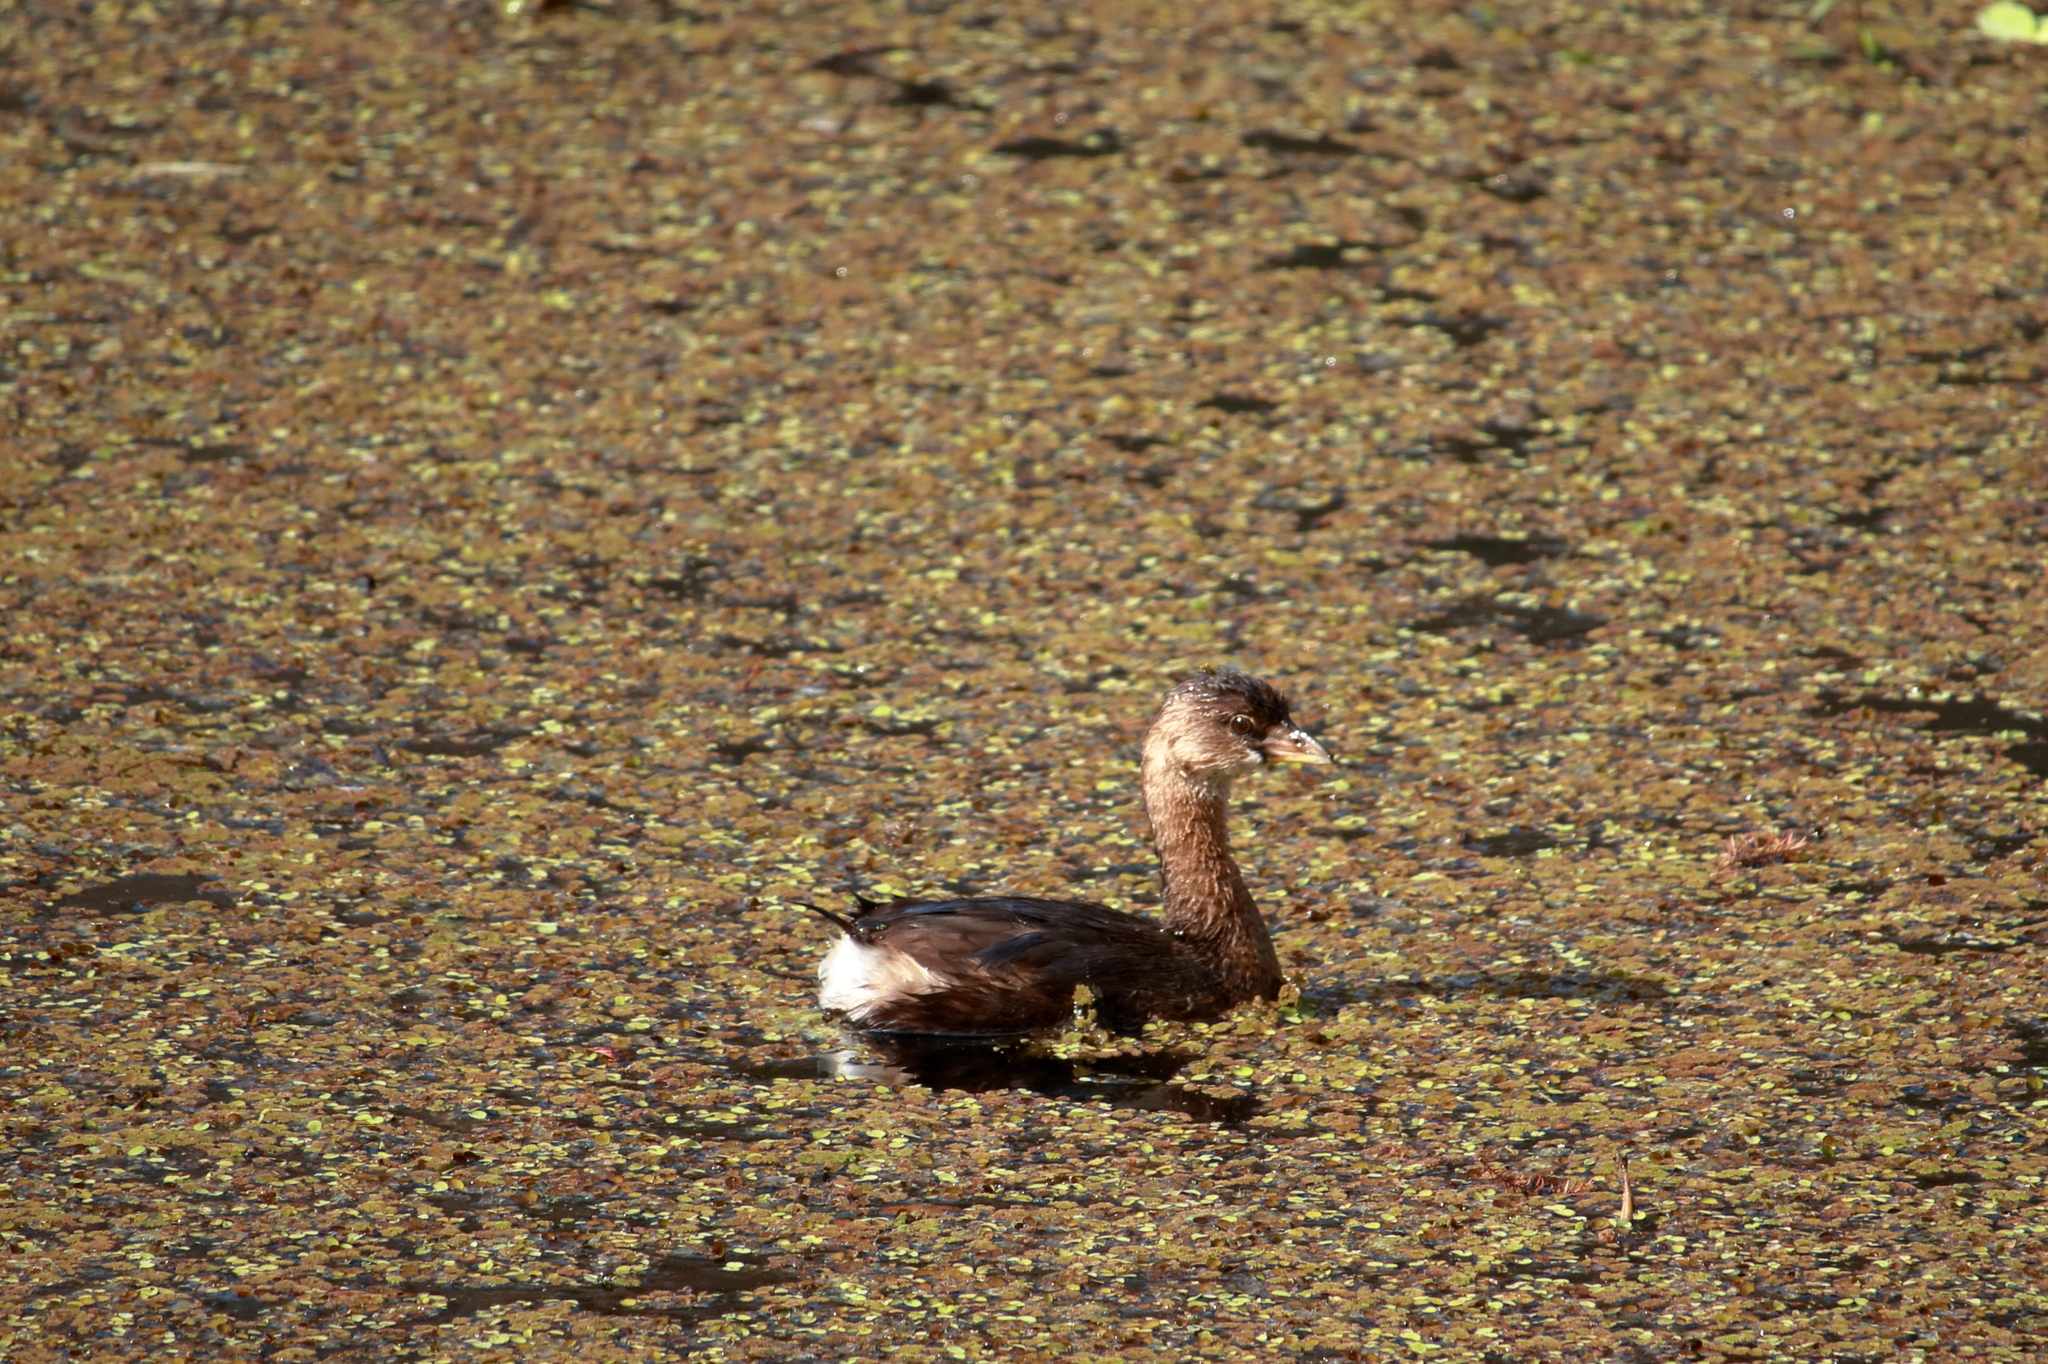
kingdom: Animalia
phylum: Chordata
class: Aves
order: Podicipediformes
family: Podicipedidae
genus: Podilymbus
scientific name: Podilymbus podiceps
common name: Pied-billed grebe
